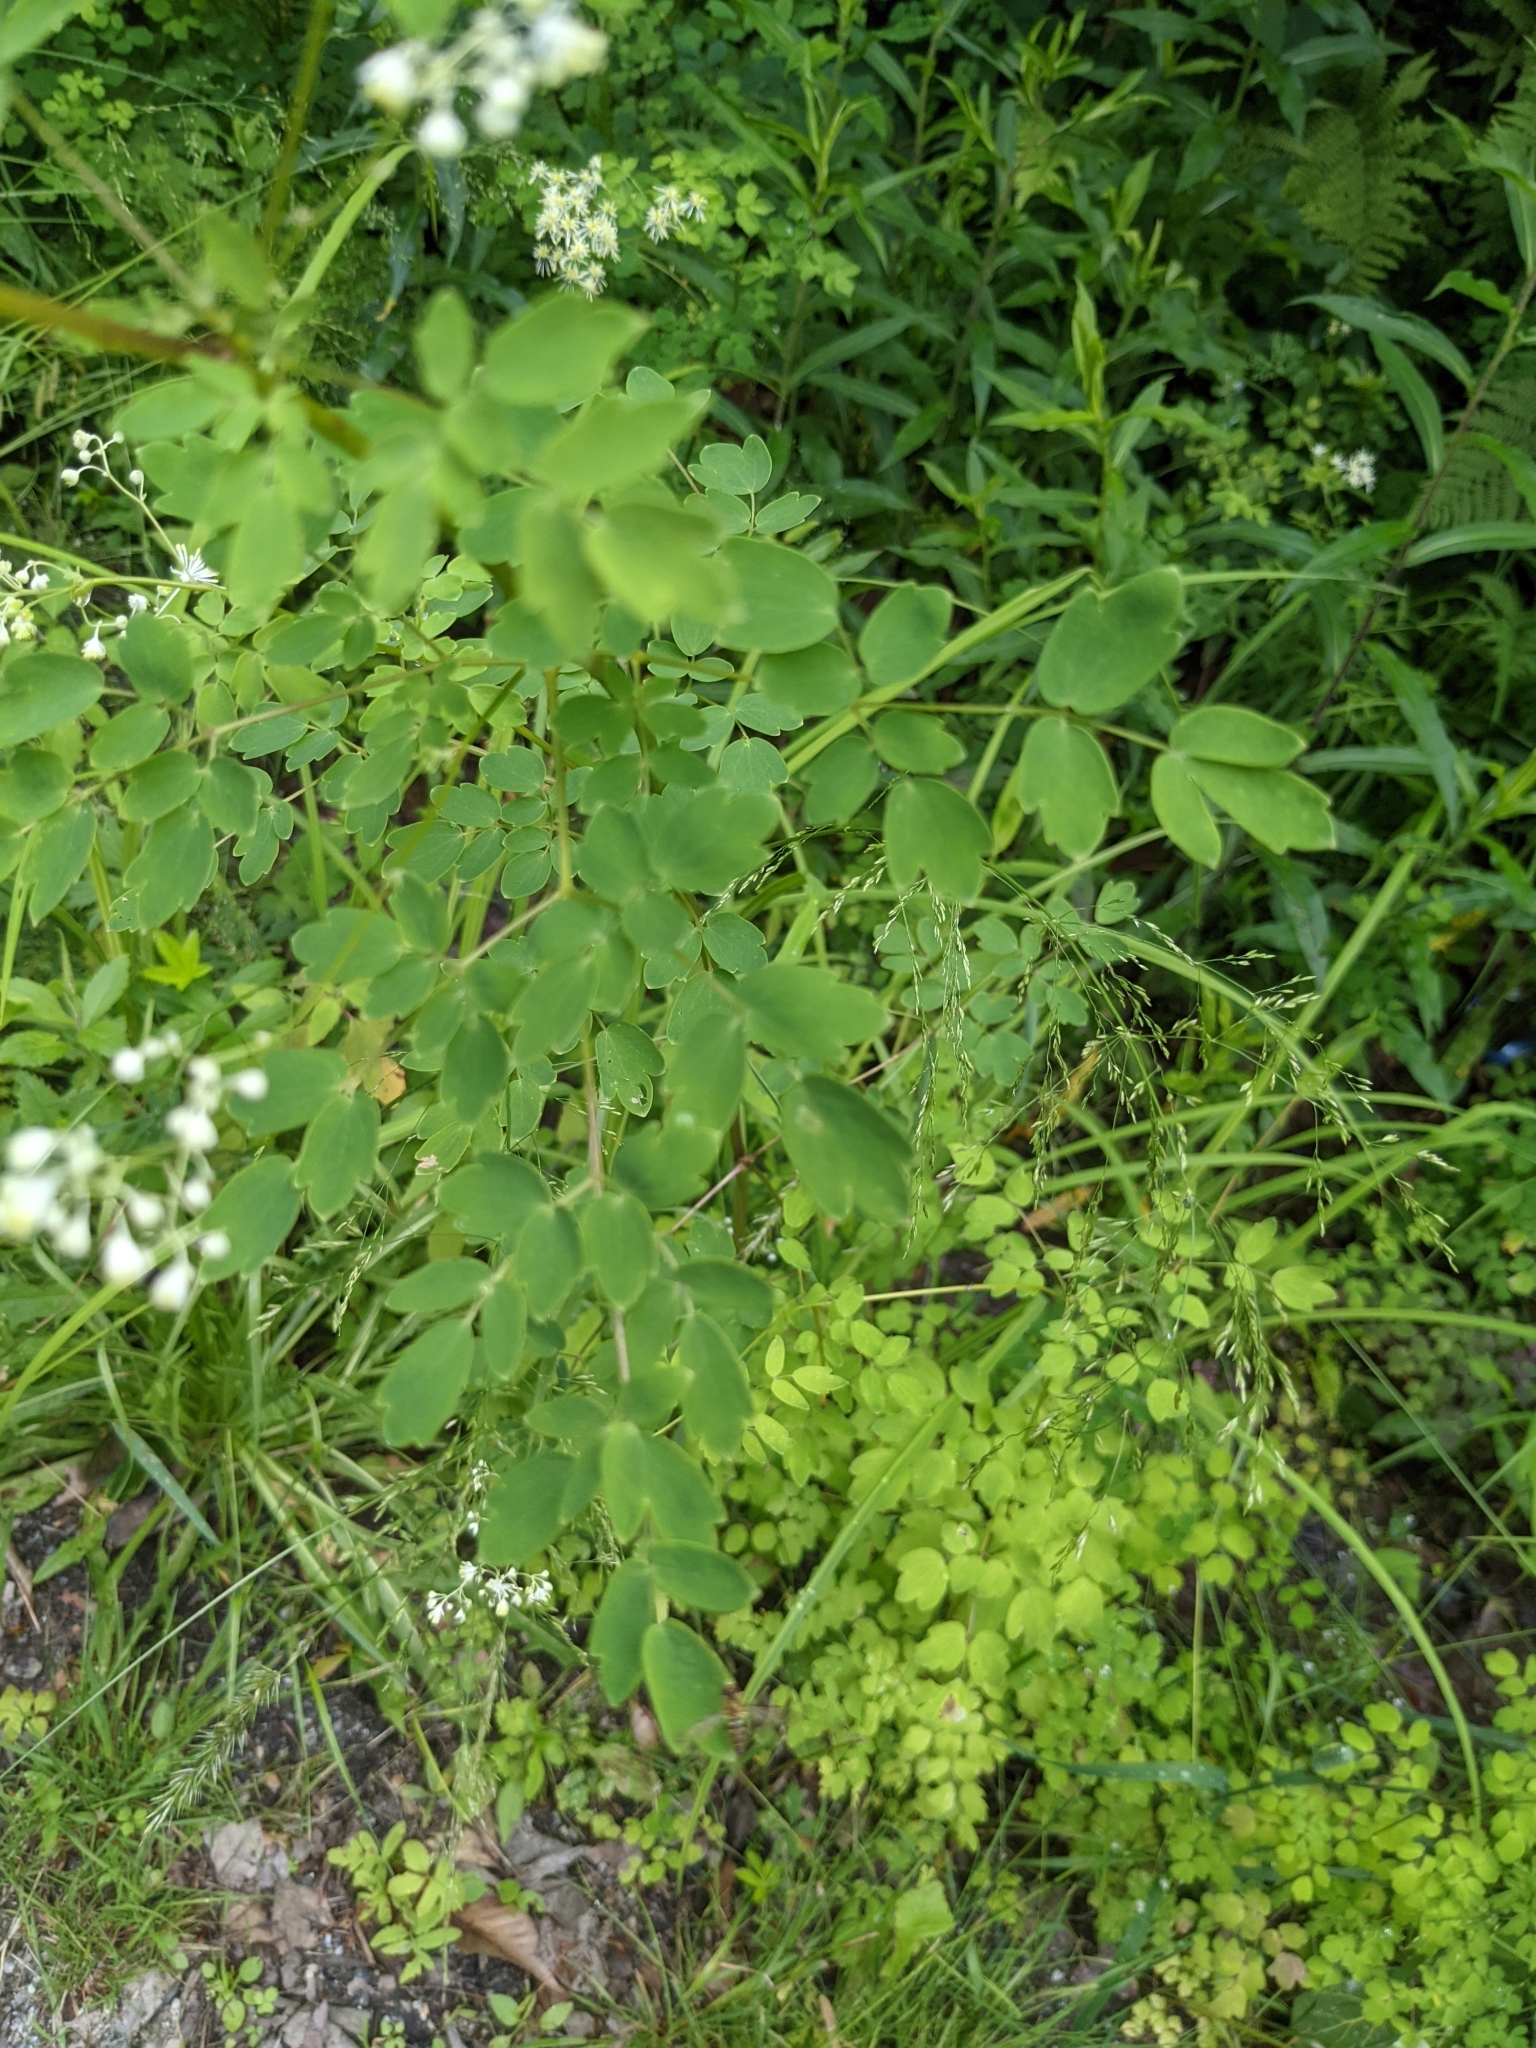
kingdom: Plantae
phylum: Tracheophyta
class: Magnoliopsida
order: Ranunculales
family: Ranunculaceae
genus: Thalictrum
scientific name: Thalictrum pubescens
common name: King-of-the-meadow
